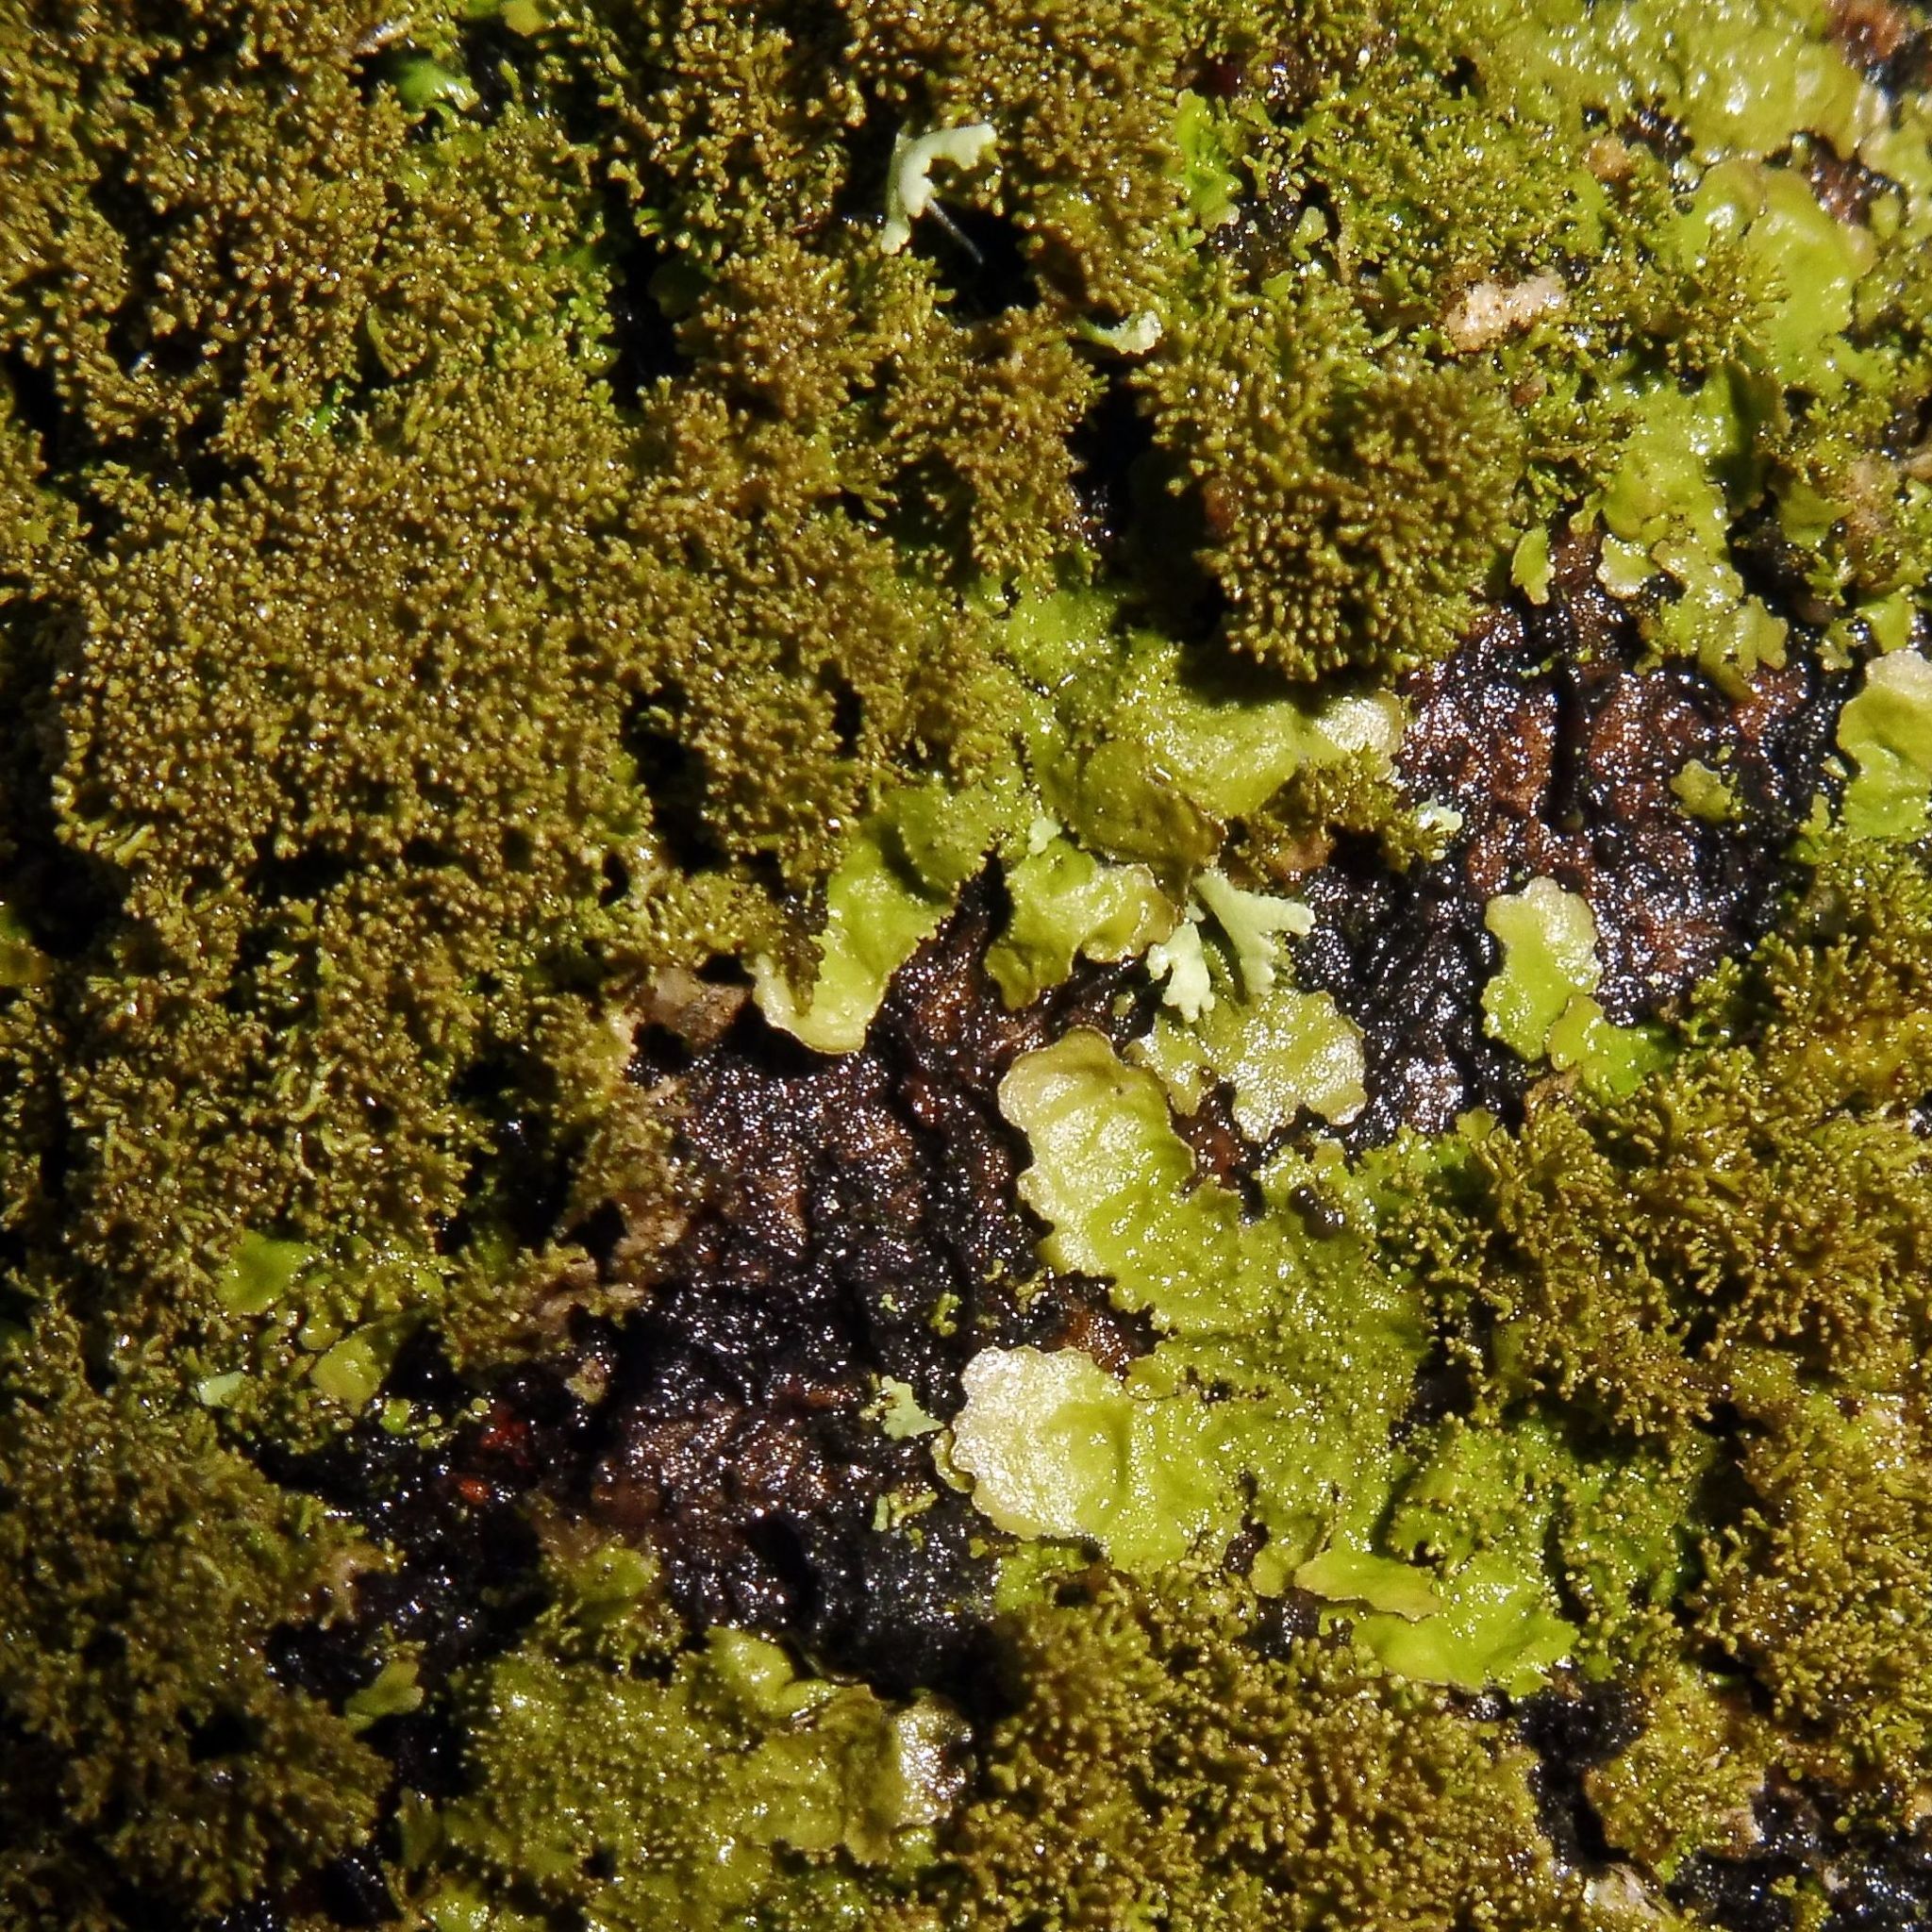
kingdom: Fungi
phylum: Ascomycota
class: Lecanoromycetes
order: Lecanorales
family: Parmeliaceae
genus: Melanohalea
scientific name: Melanohalea elegantula
